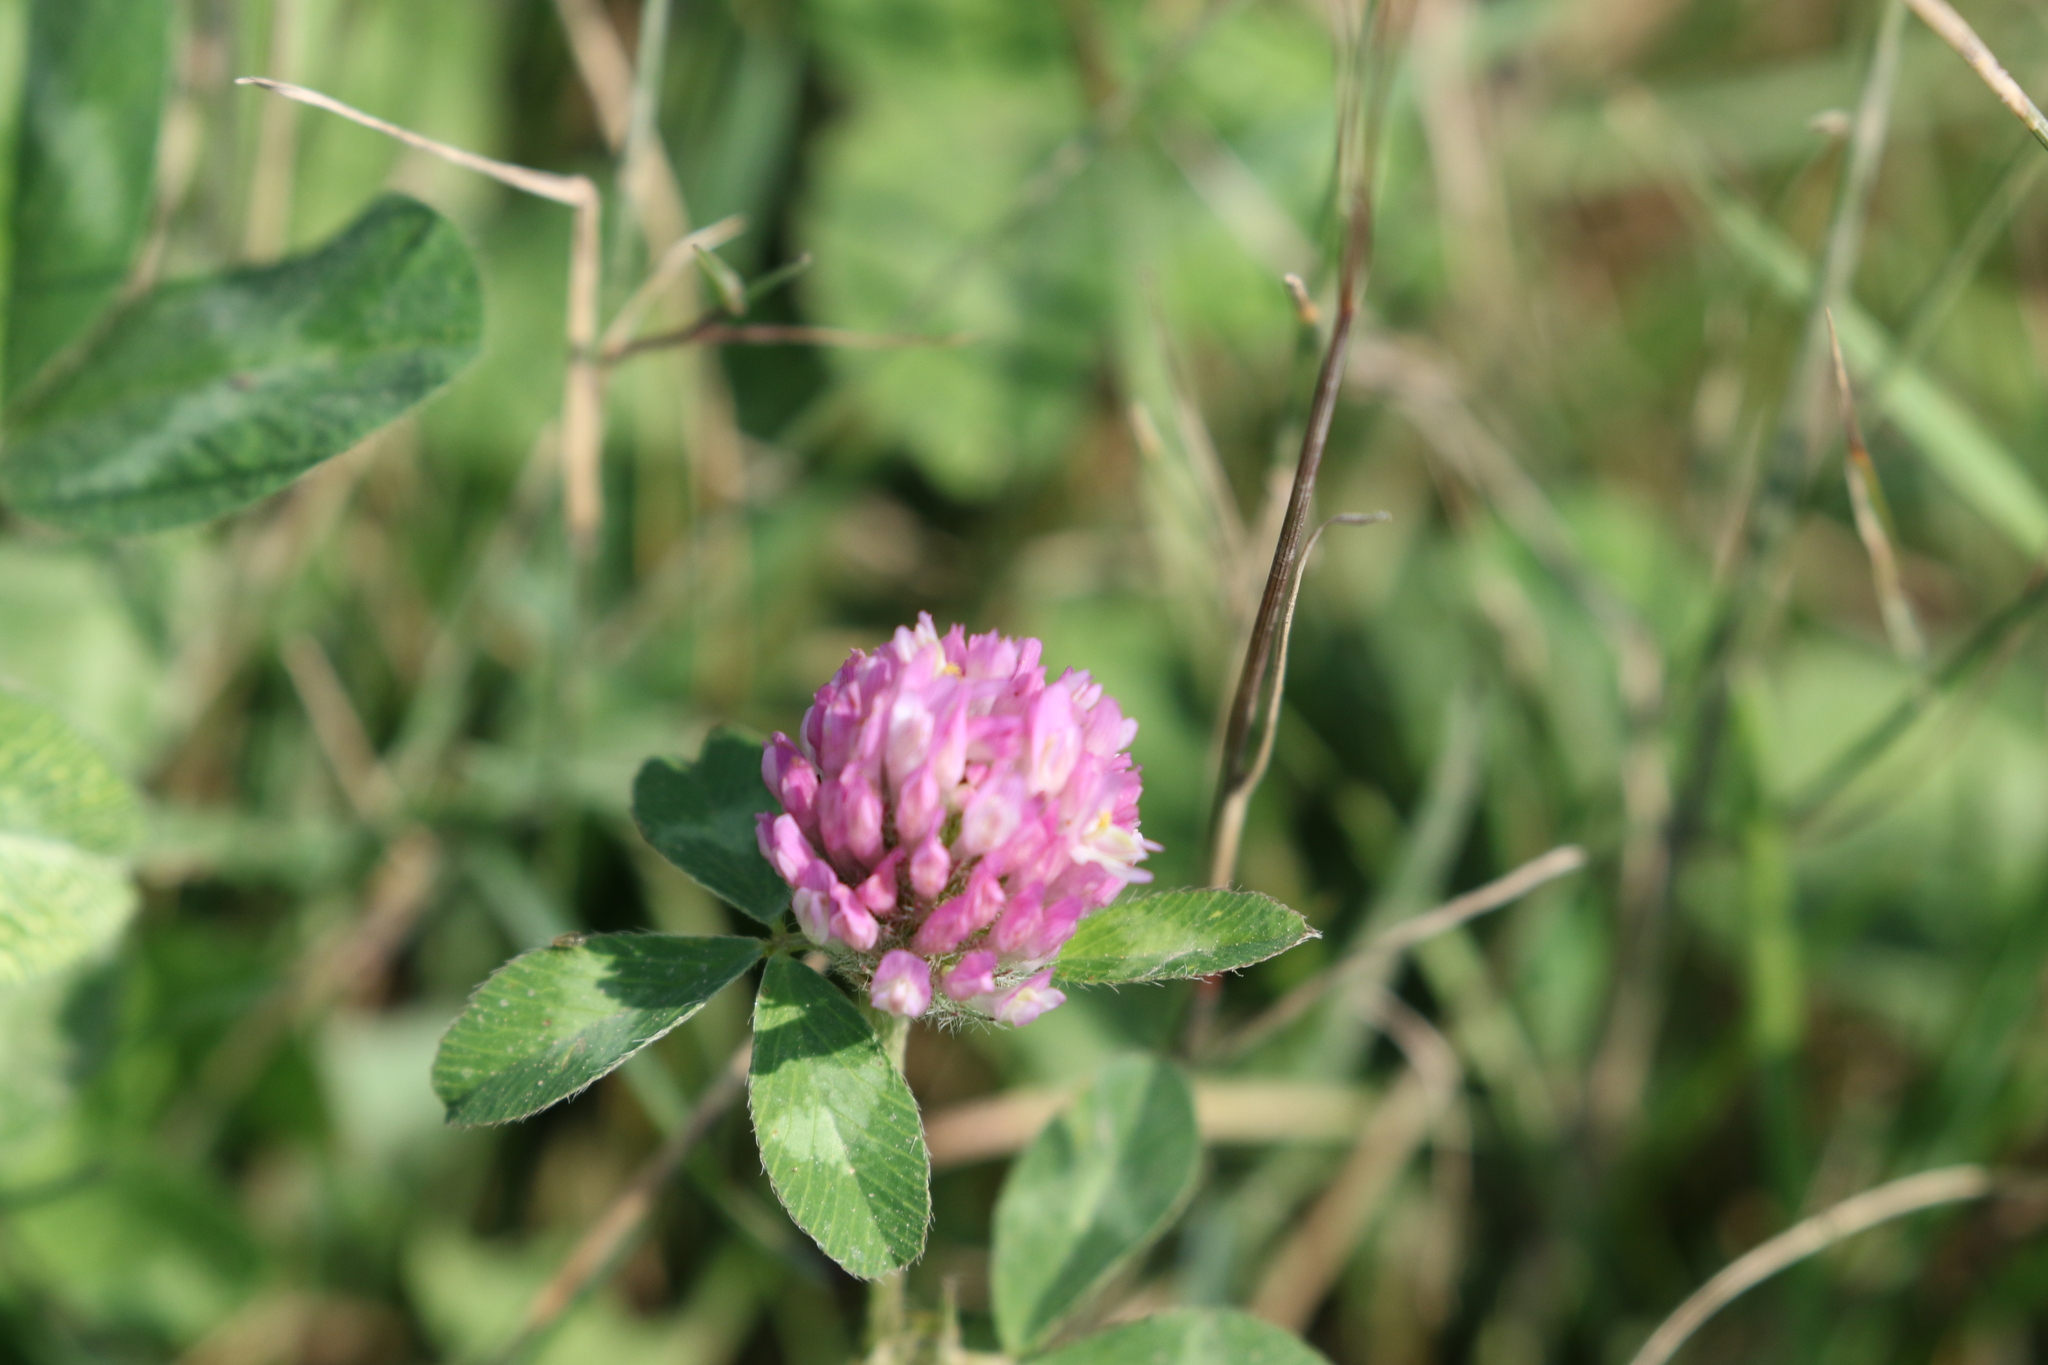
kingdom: Plantae
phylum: Tracheophyta
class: Magnoliopsida
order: Fabales
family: Fabaceae
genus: Trifolium
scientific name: Trifolium pratense
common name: Red clover
